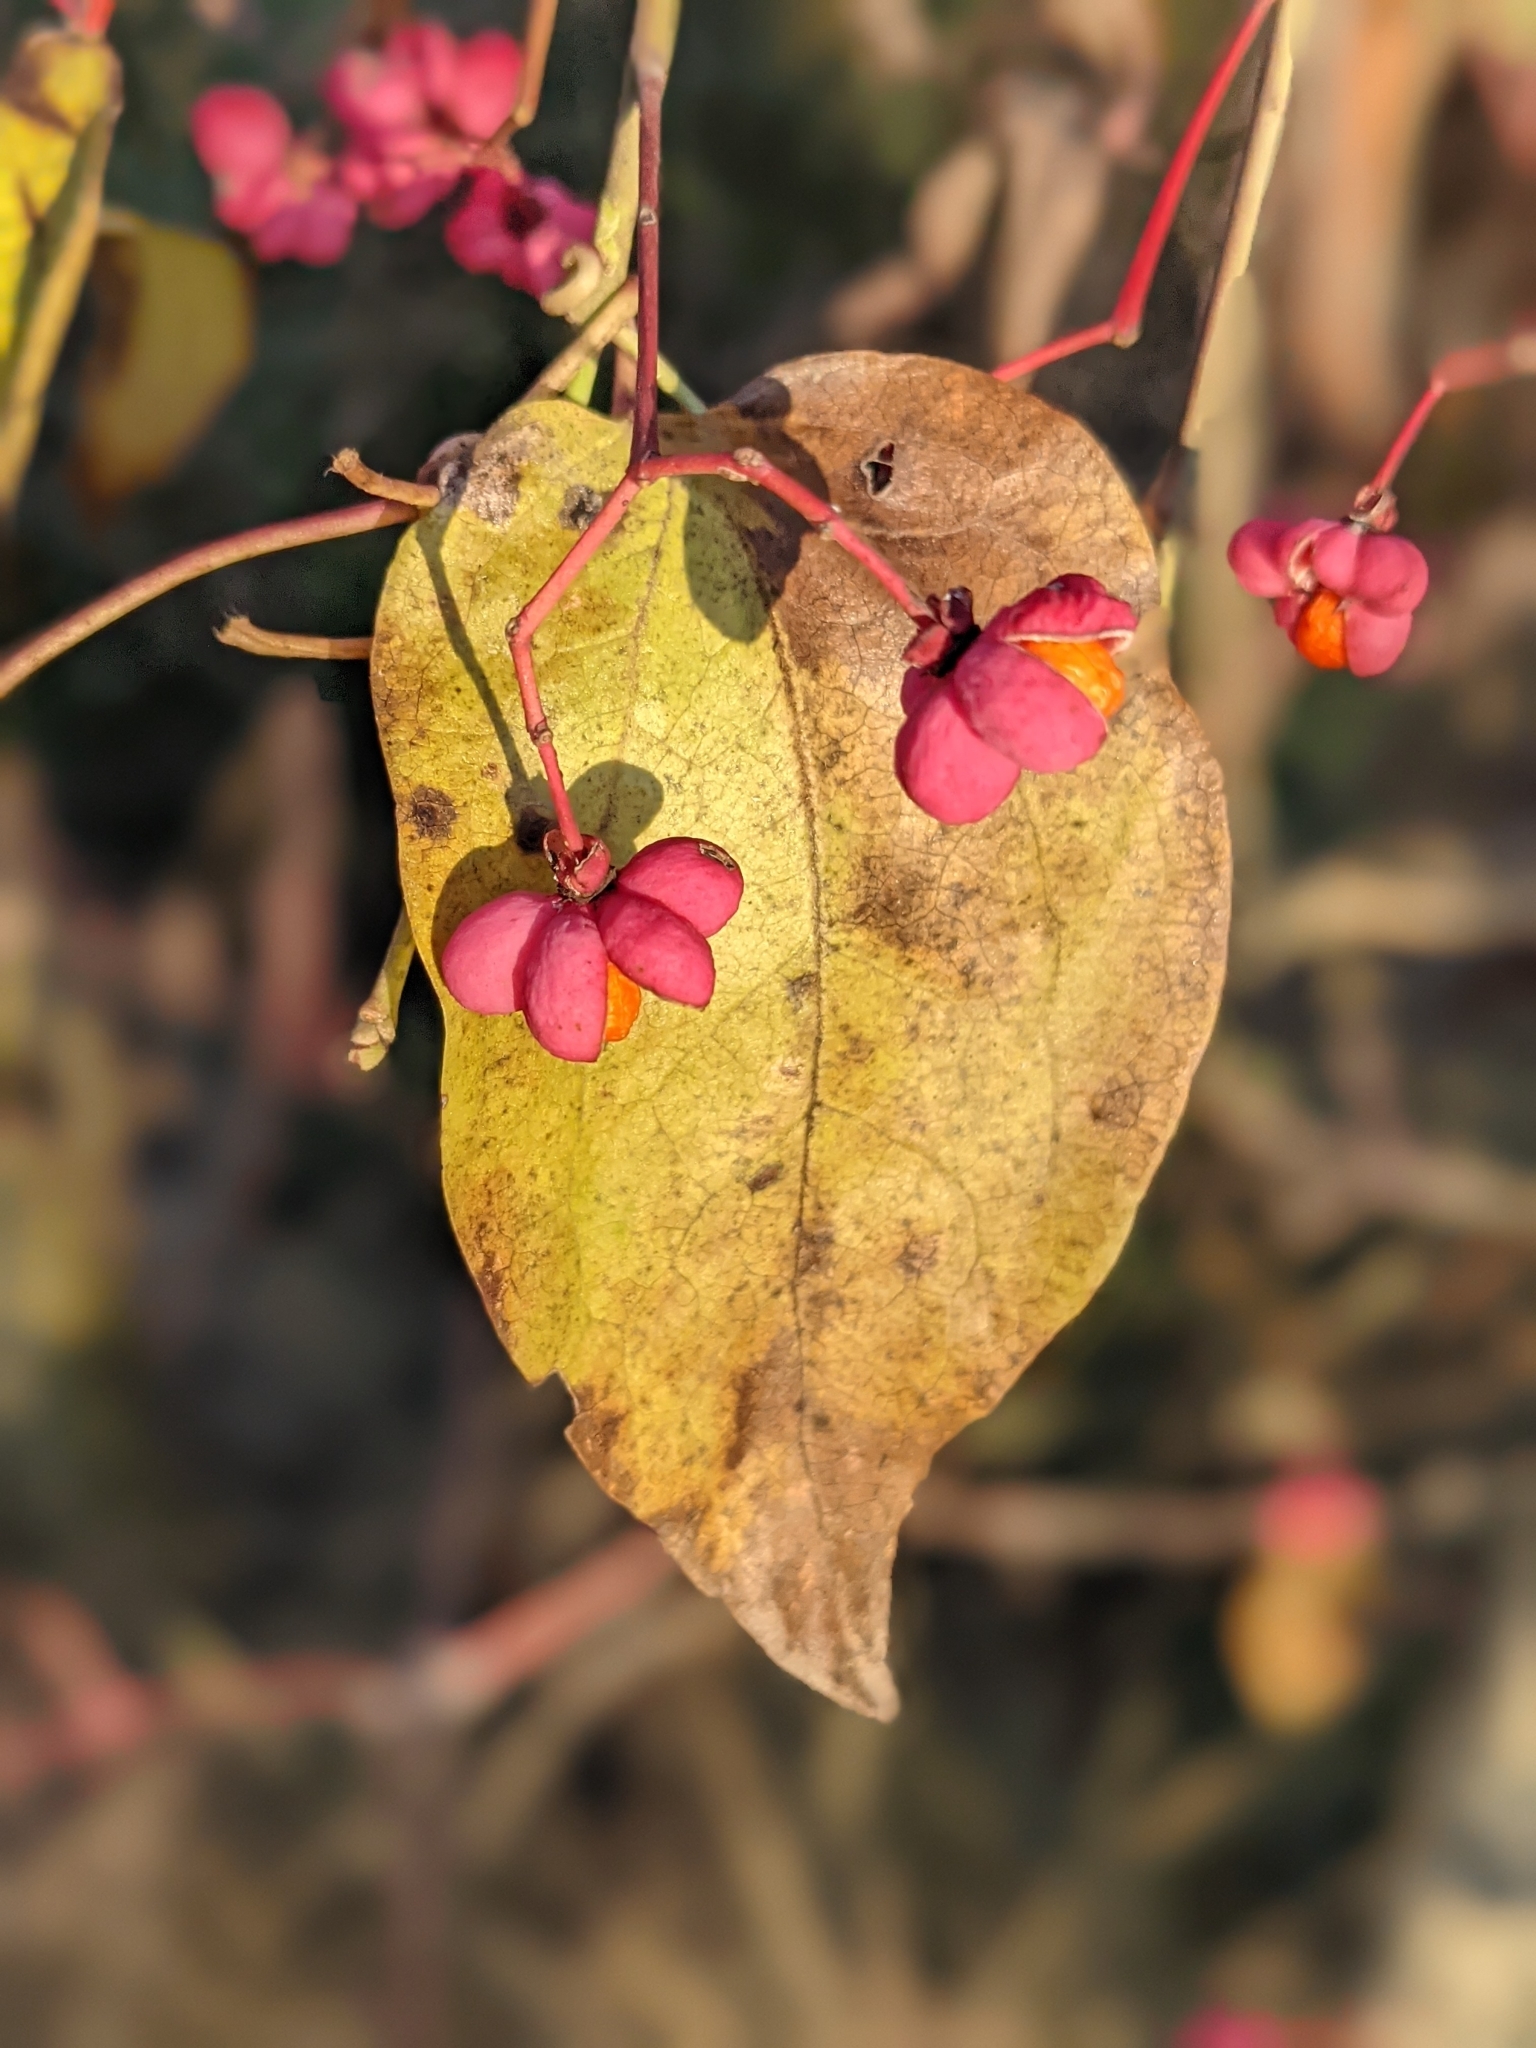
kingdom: Plantae
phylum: Tracheophyta
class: Magnoliopsida
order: Celastrales
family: Celastraceae
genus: Euonymus
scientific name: Euonymus europaeus
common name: Spindle
